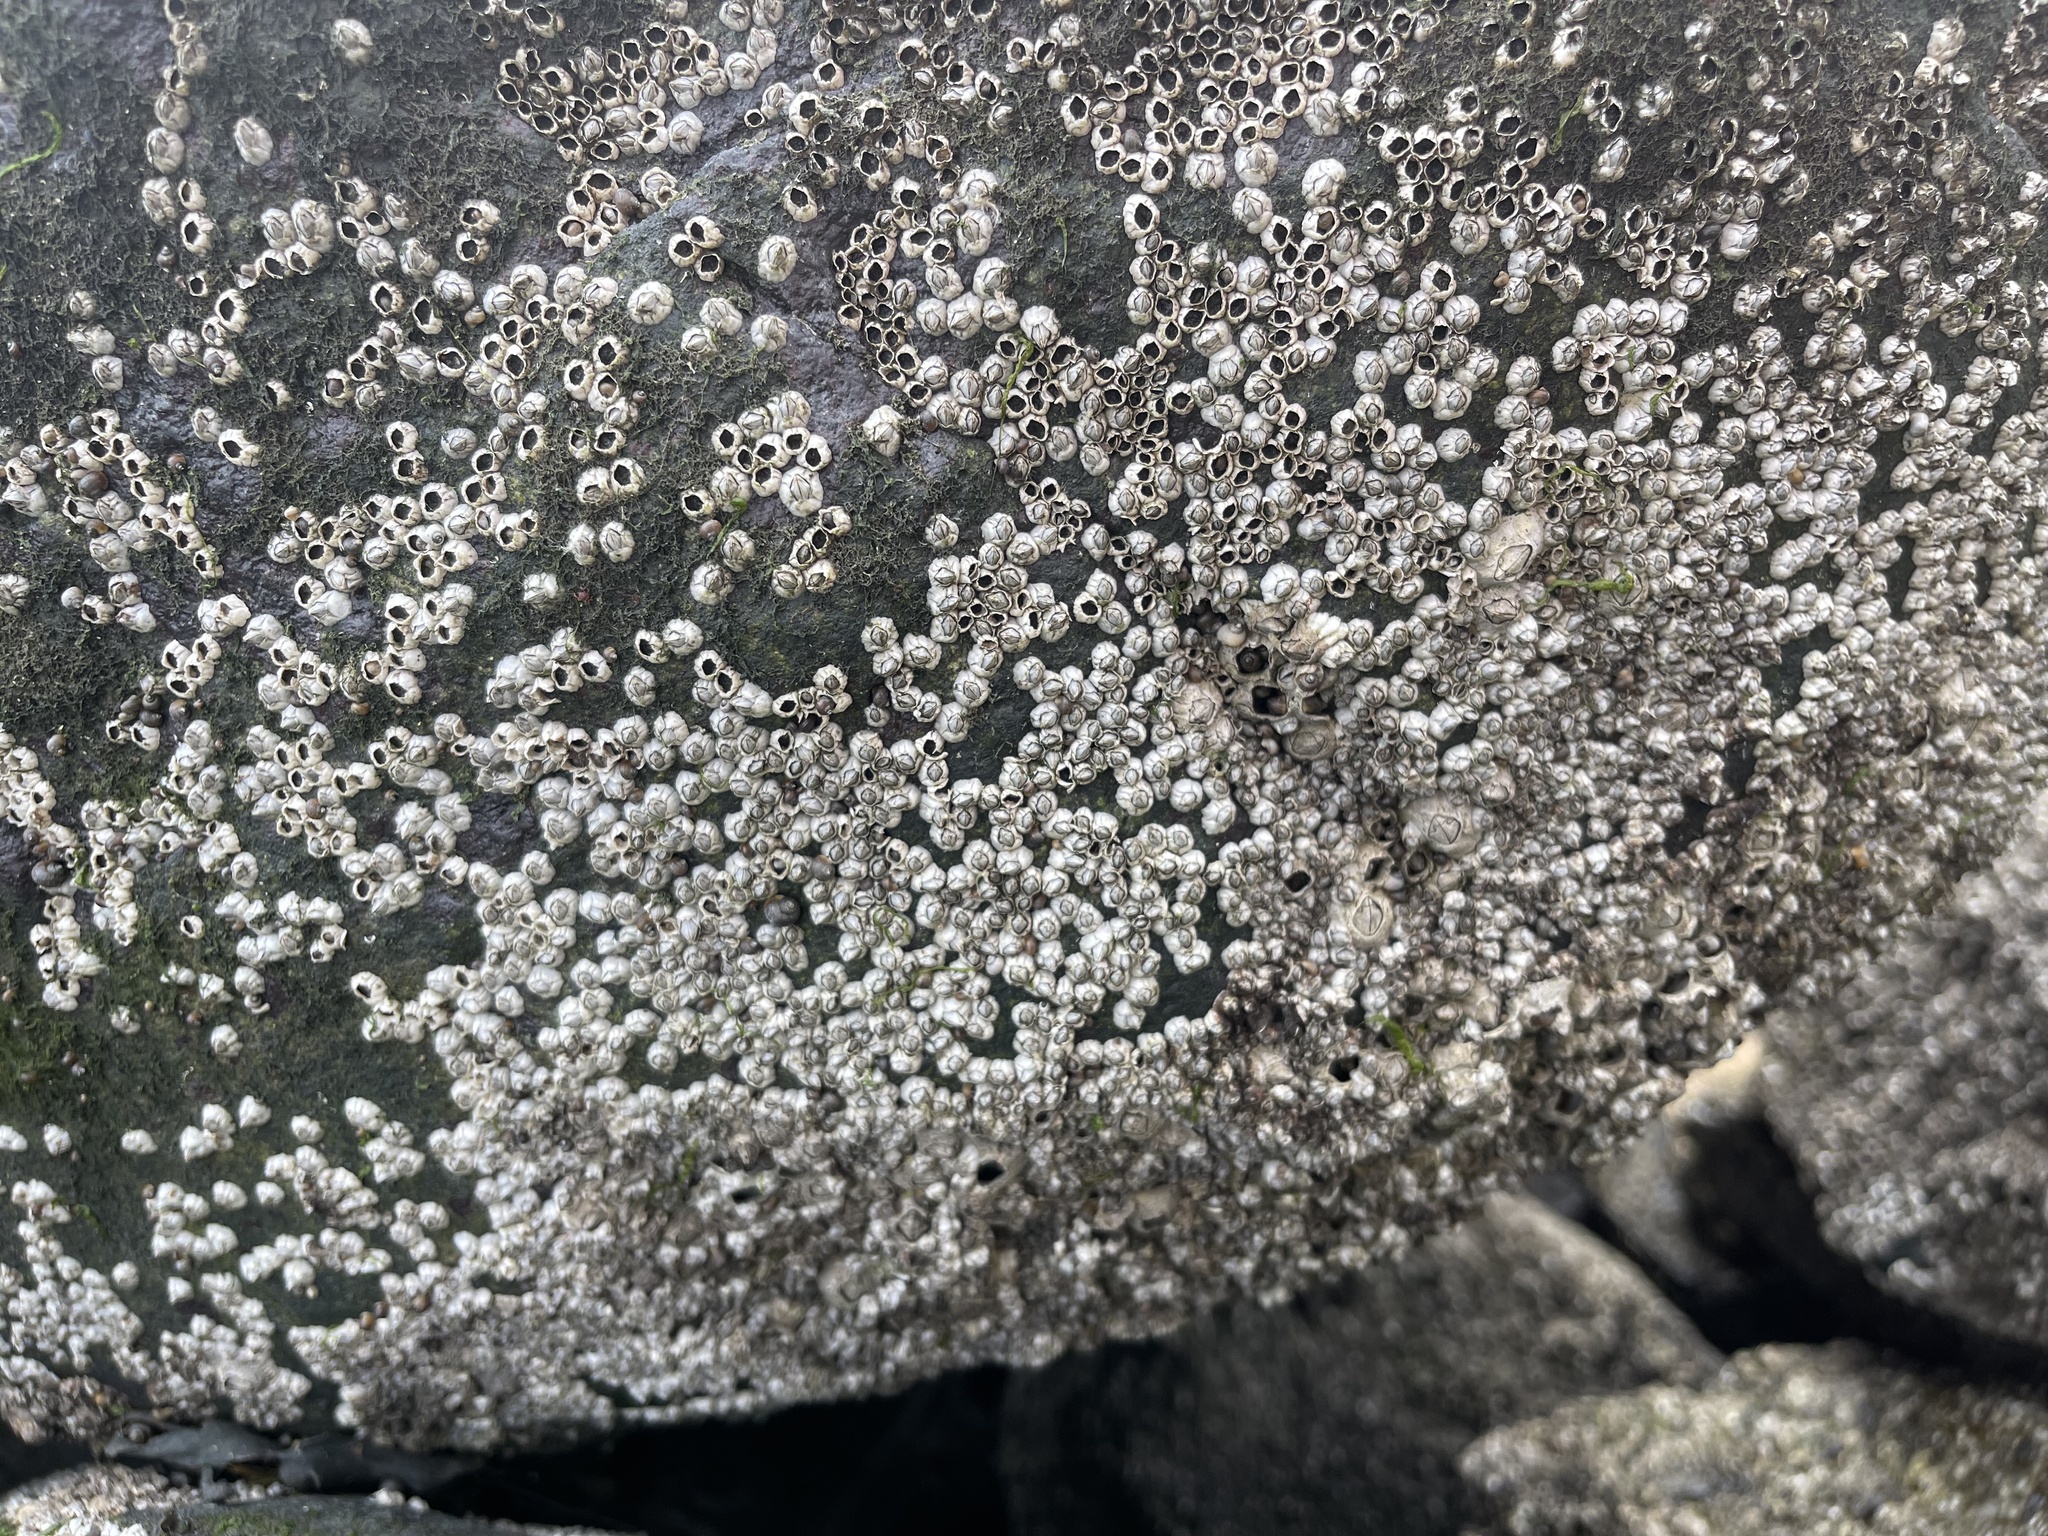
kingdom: Animalia
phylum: Arthropoda
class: Maxillopoda
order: Sessilia
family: Archaeobalanidae
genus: Semibalanus
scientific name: Semibalanus balanoides
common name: Acorn barnacle
